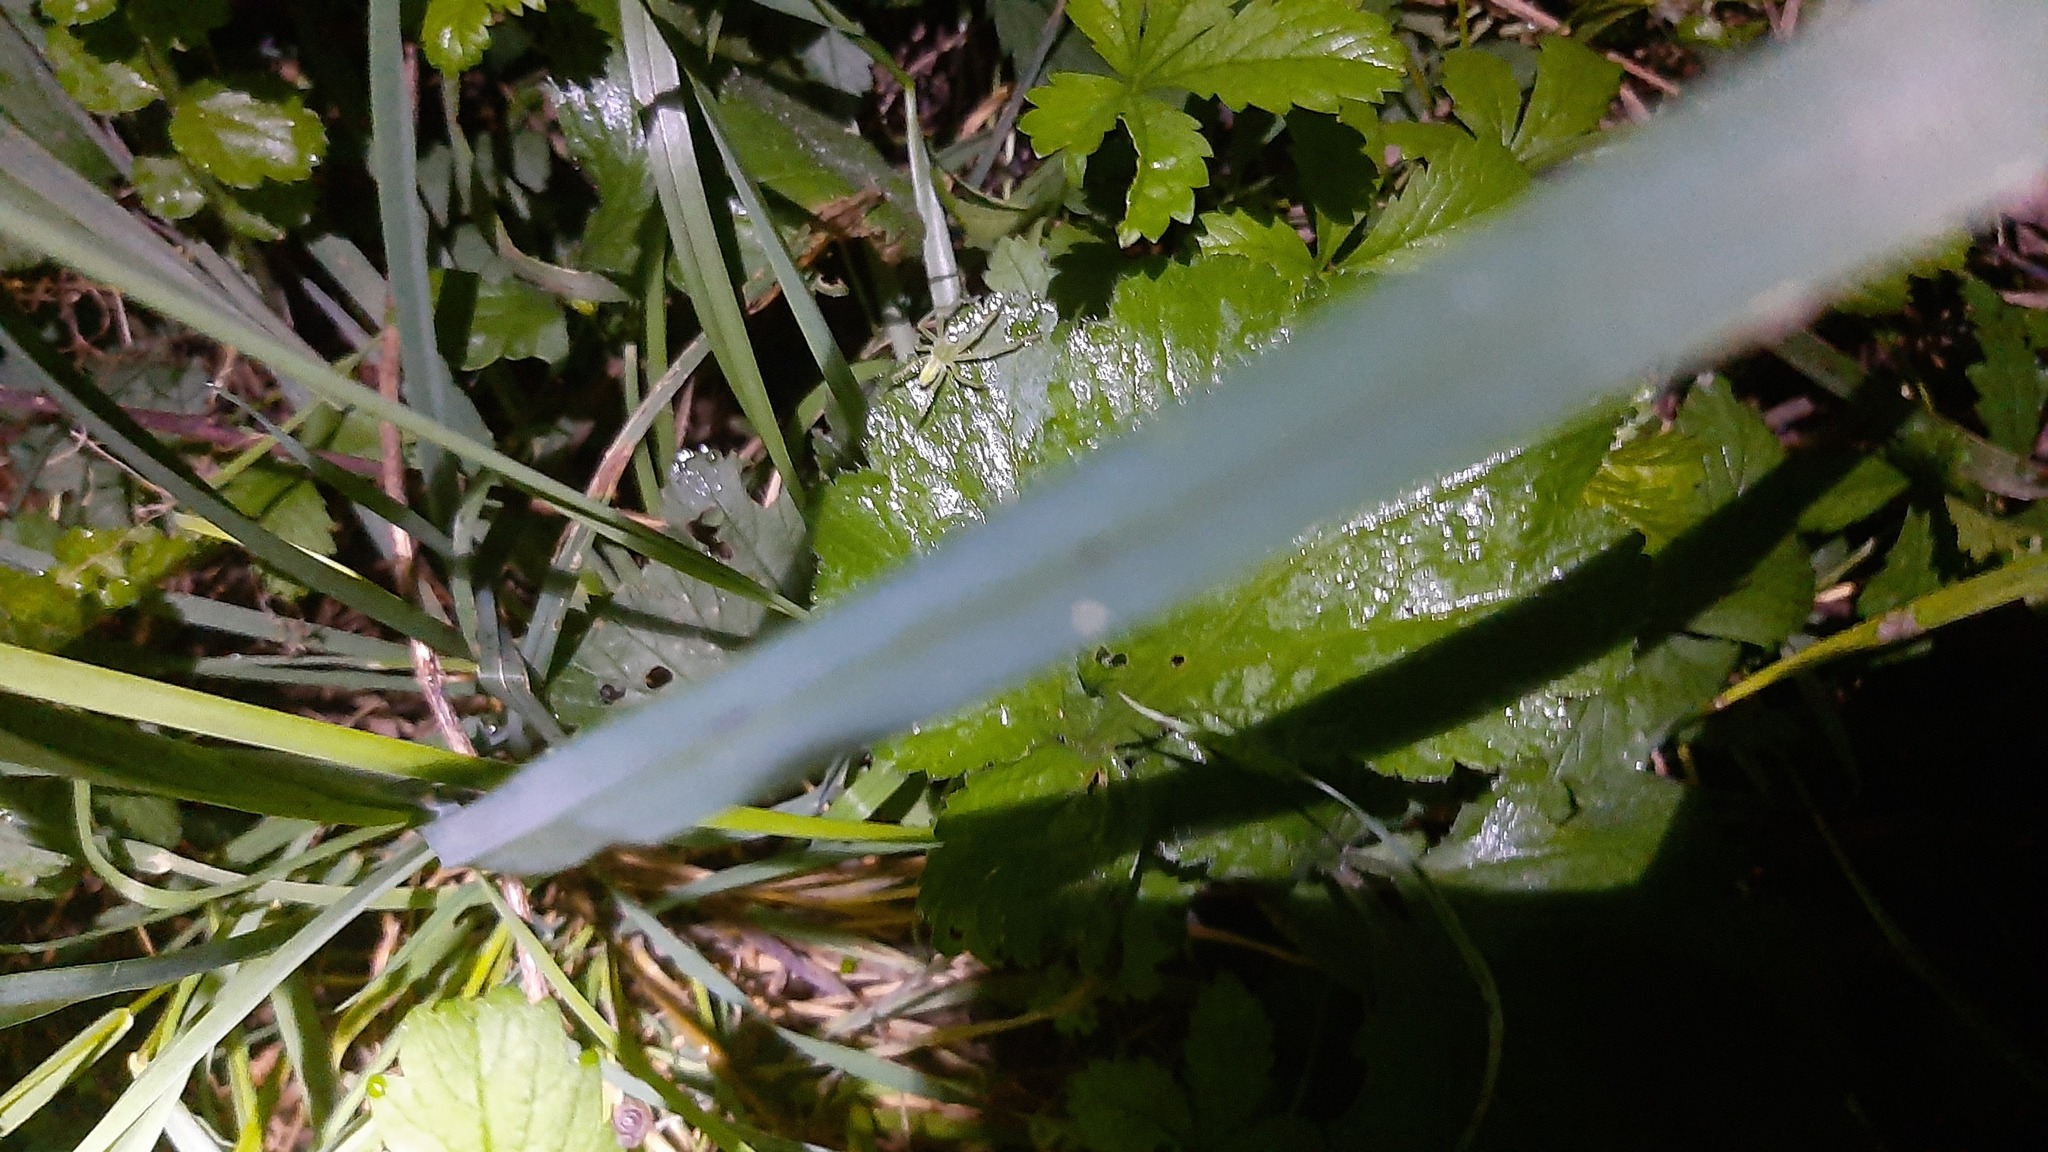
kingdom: Animalia
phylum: Arthropoda
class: Arachnida
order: Araneae
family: Sparassidae
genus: Micrommata
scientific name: Micrommata virescens
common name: Green spider
